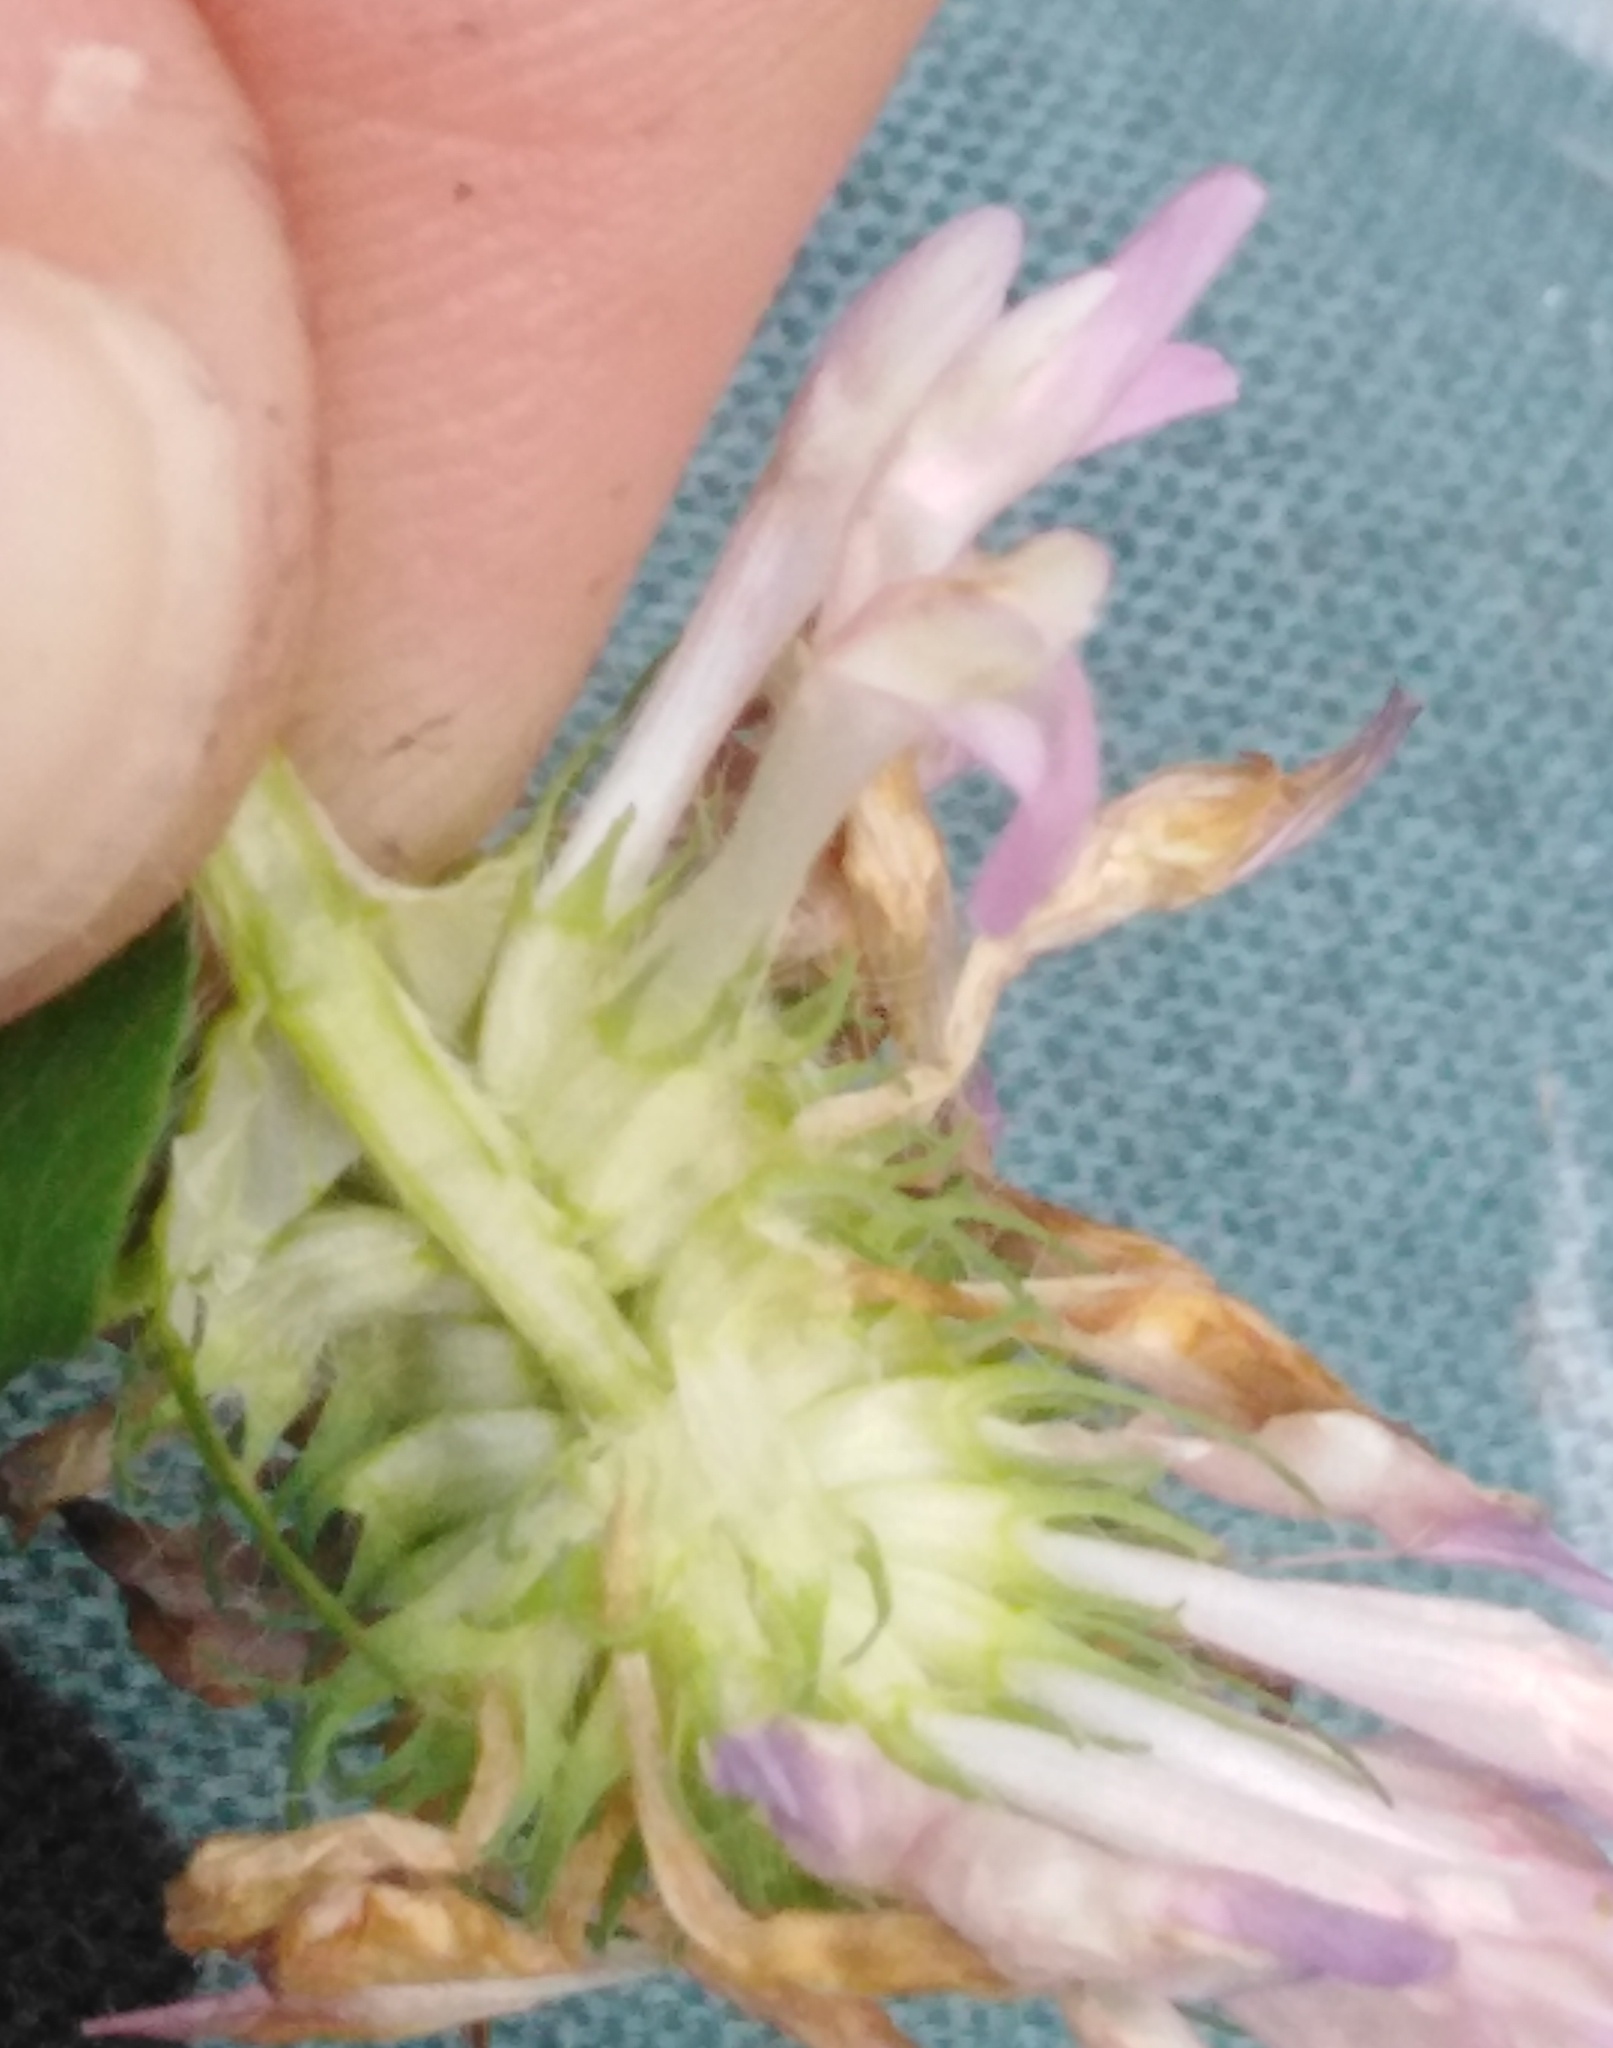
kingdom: Plantae
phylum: Tracheophyta
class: Magnoliopsida
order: Fabales
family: Fabaceae
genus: Trifolium
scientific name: Trifolium pratense
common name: Red clover
